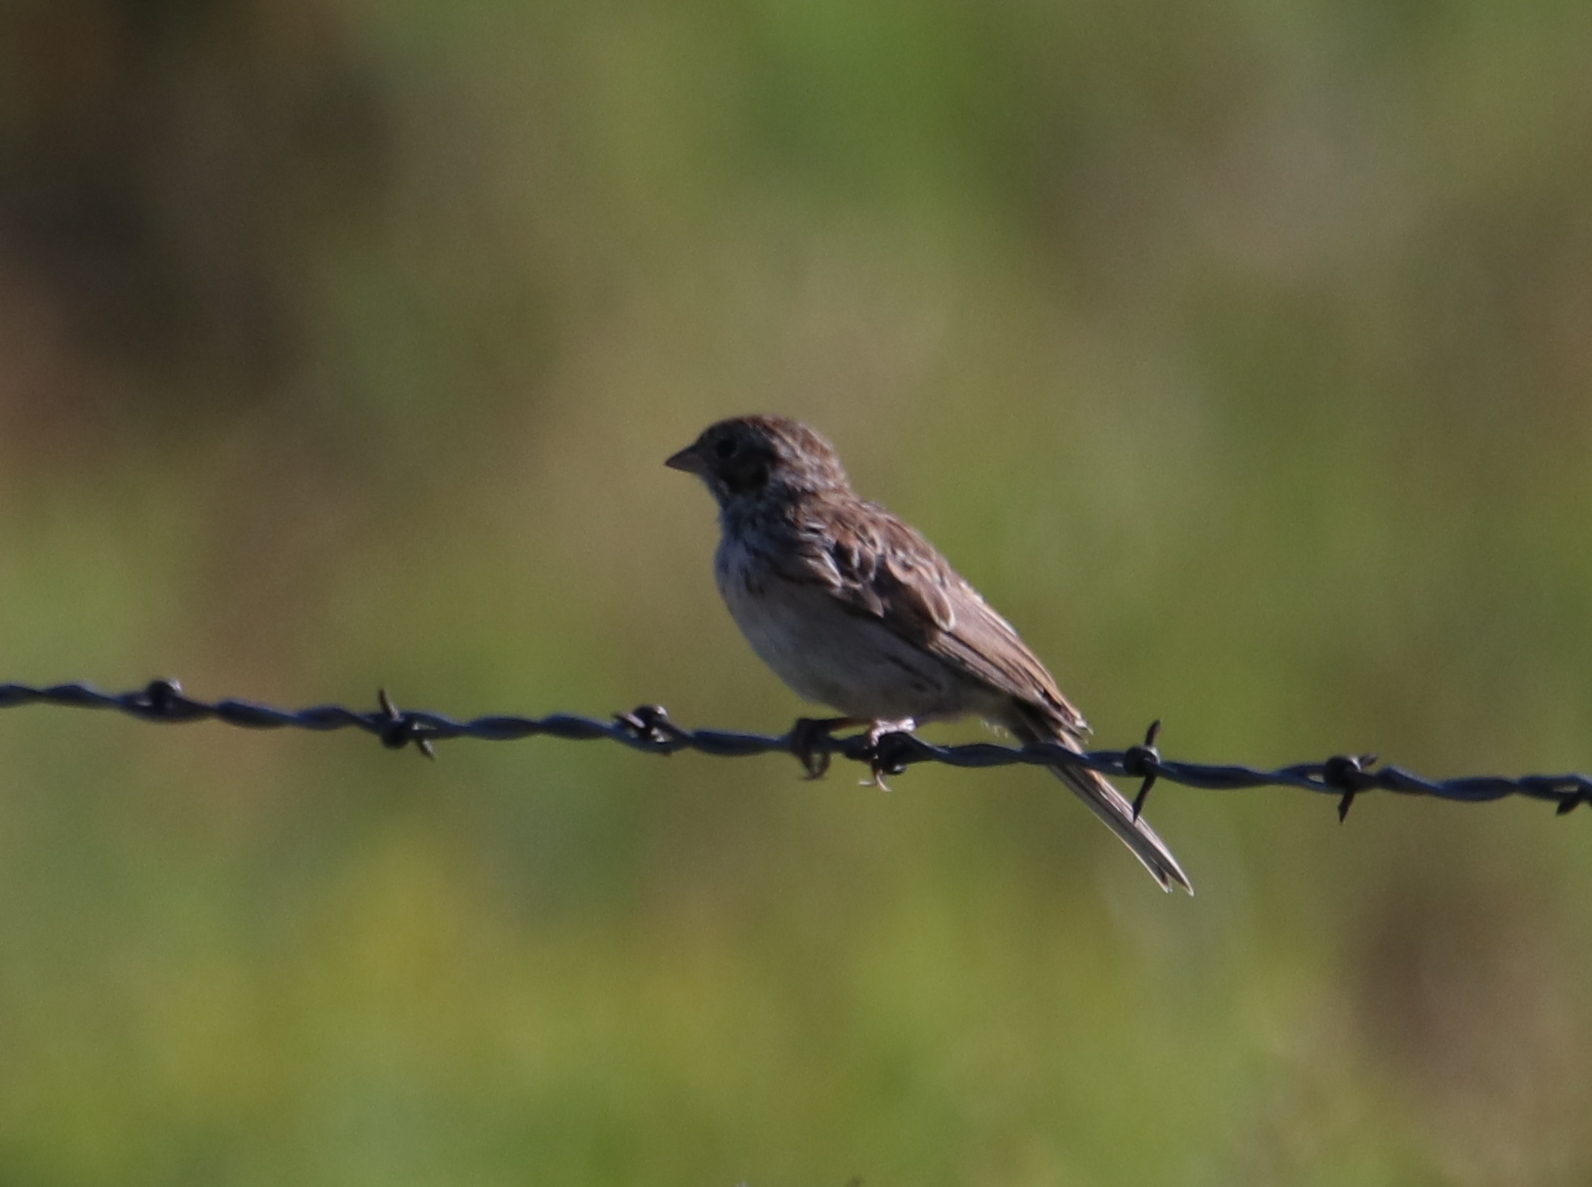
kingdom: Animalia
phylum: Chordata
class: Aves
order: Passeriformes
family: Passerellidae
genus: Pooecetes
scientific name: Pooecetes gramineus
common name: Vesper sparrow
